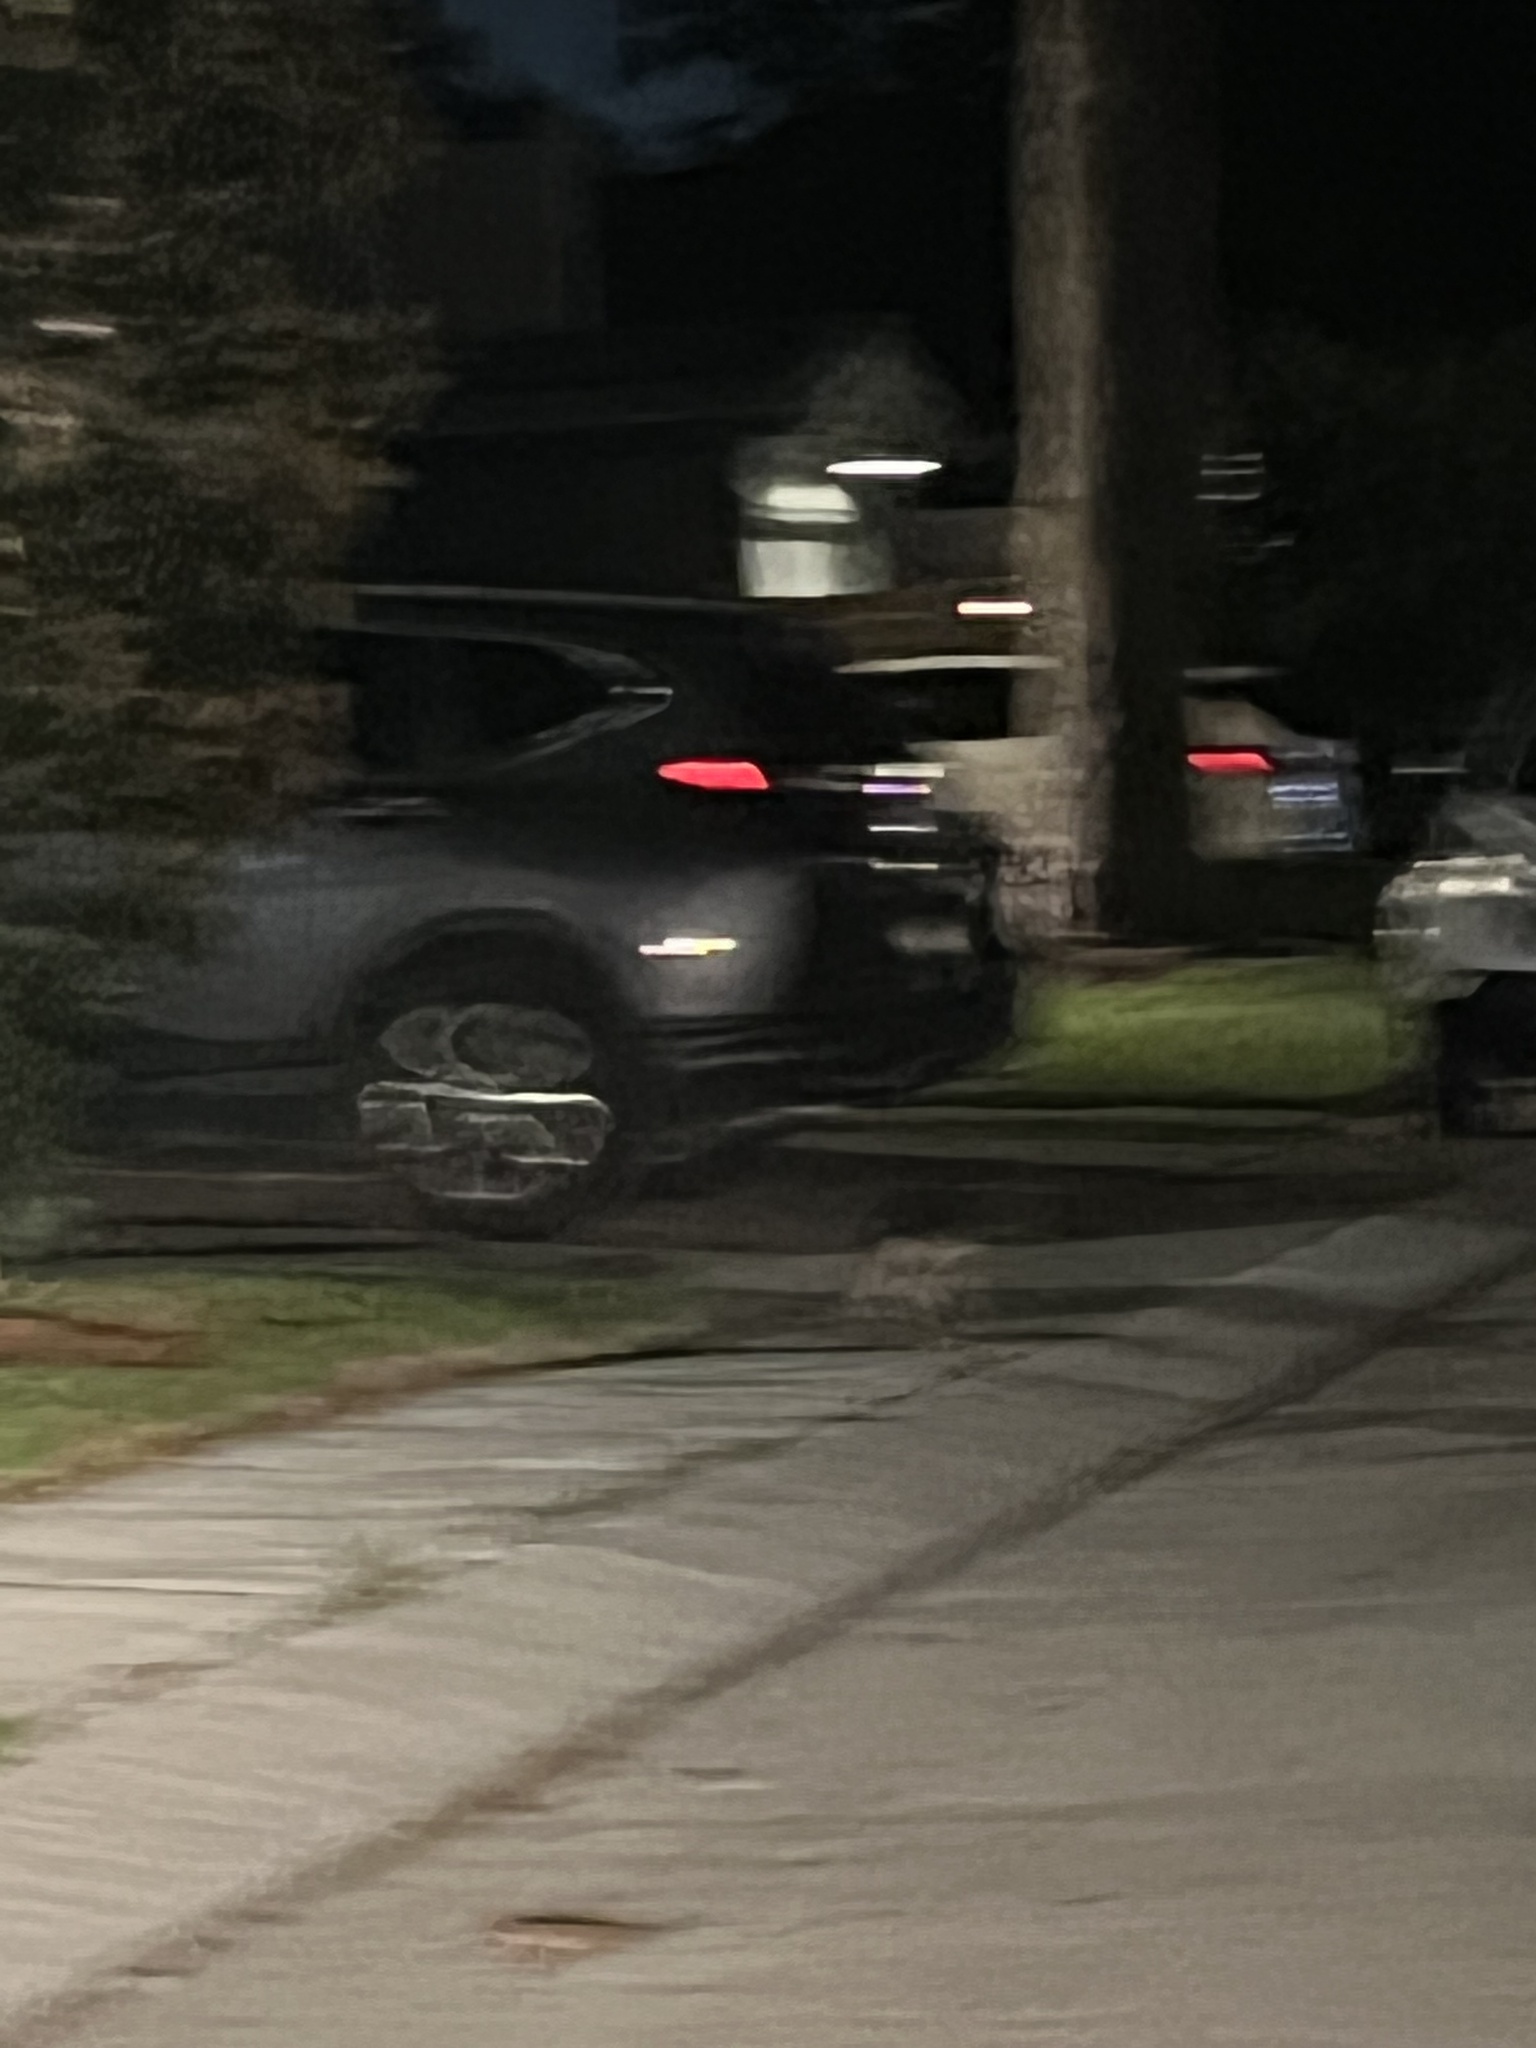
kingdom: Animalia
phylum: Chordata
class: Mammalia
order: Didelphimorphia
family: Didelphidae
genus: Didelphis
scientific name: Didelphis virginiana
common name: Virginia opossum
